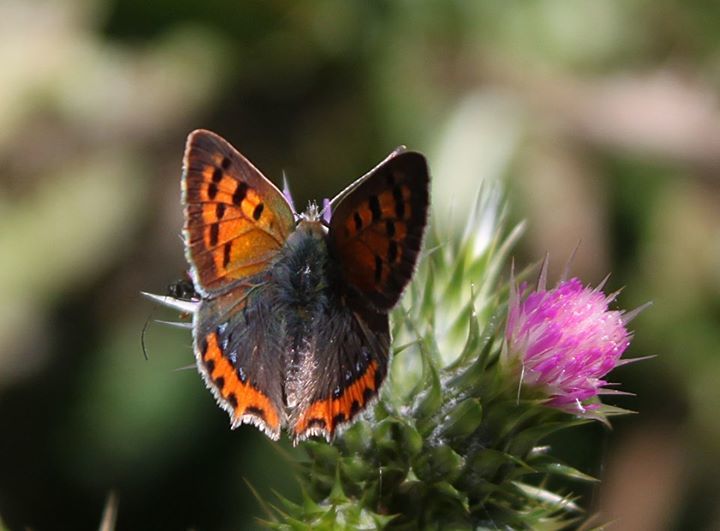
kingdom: Animalia
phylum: Arthropoda
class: Insecta
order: Lepidoptera
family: Lycaenidae
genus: Lycaena
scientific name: Lycaena phlaeas
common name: Small copper
